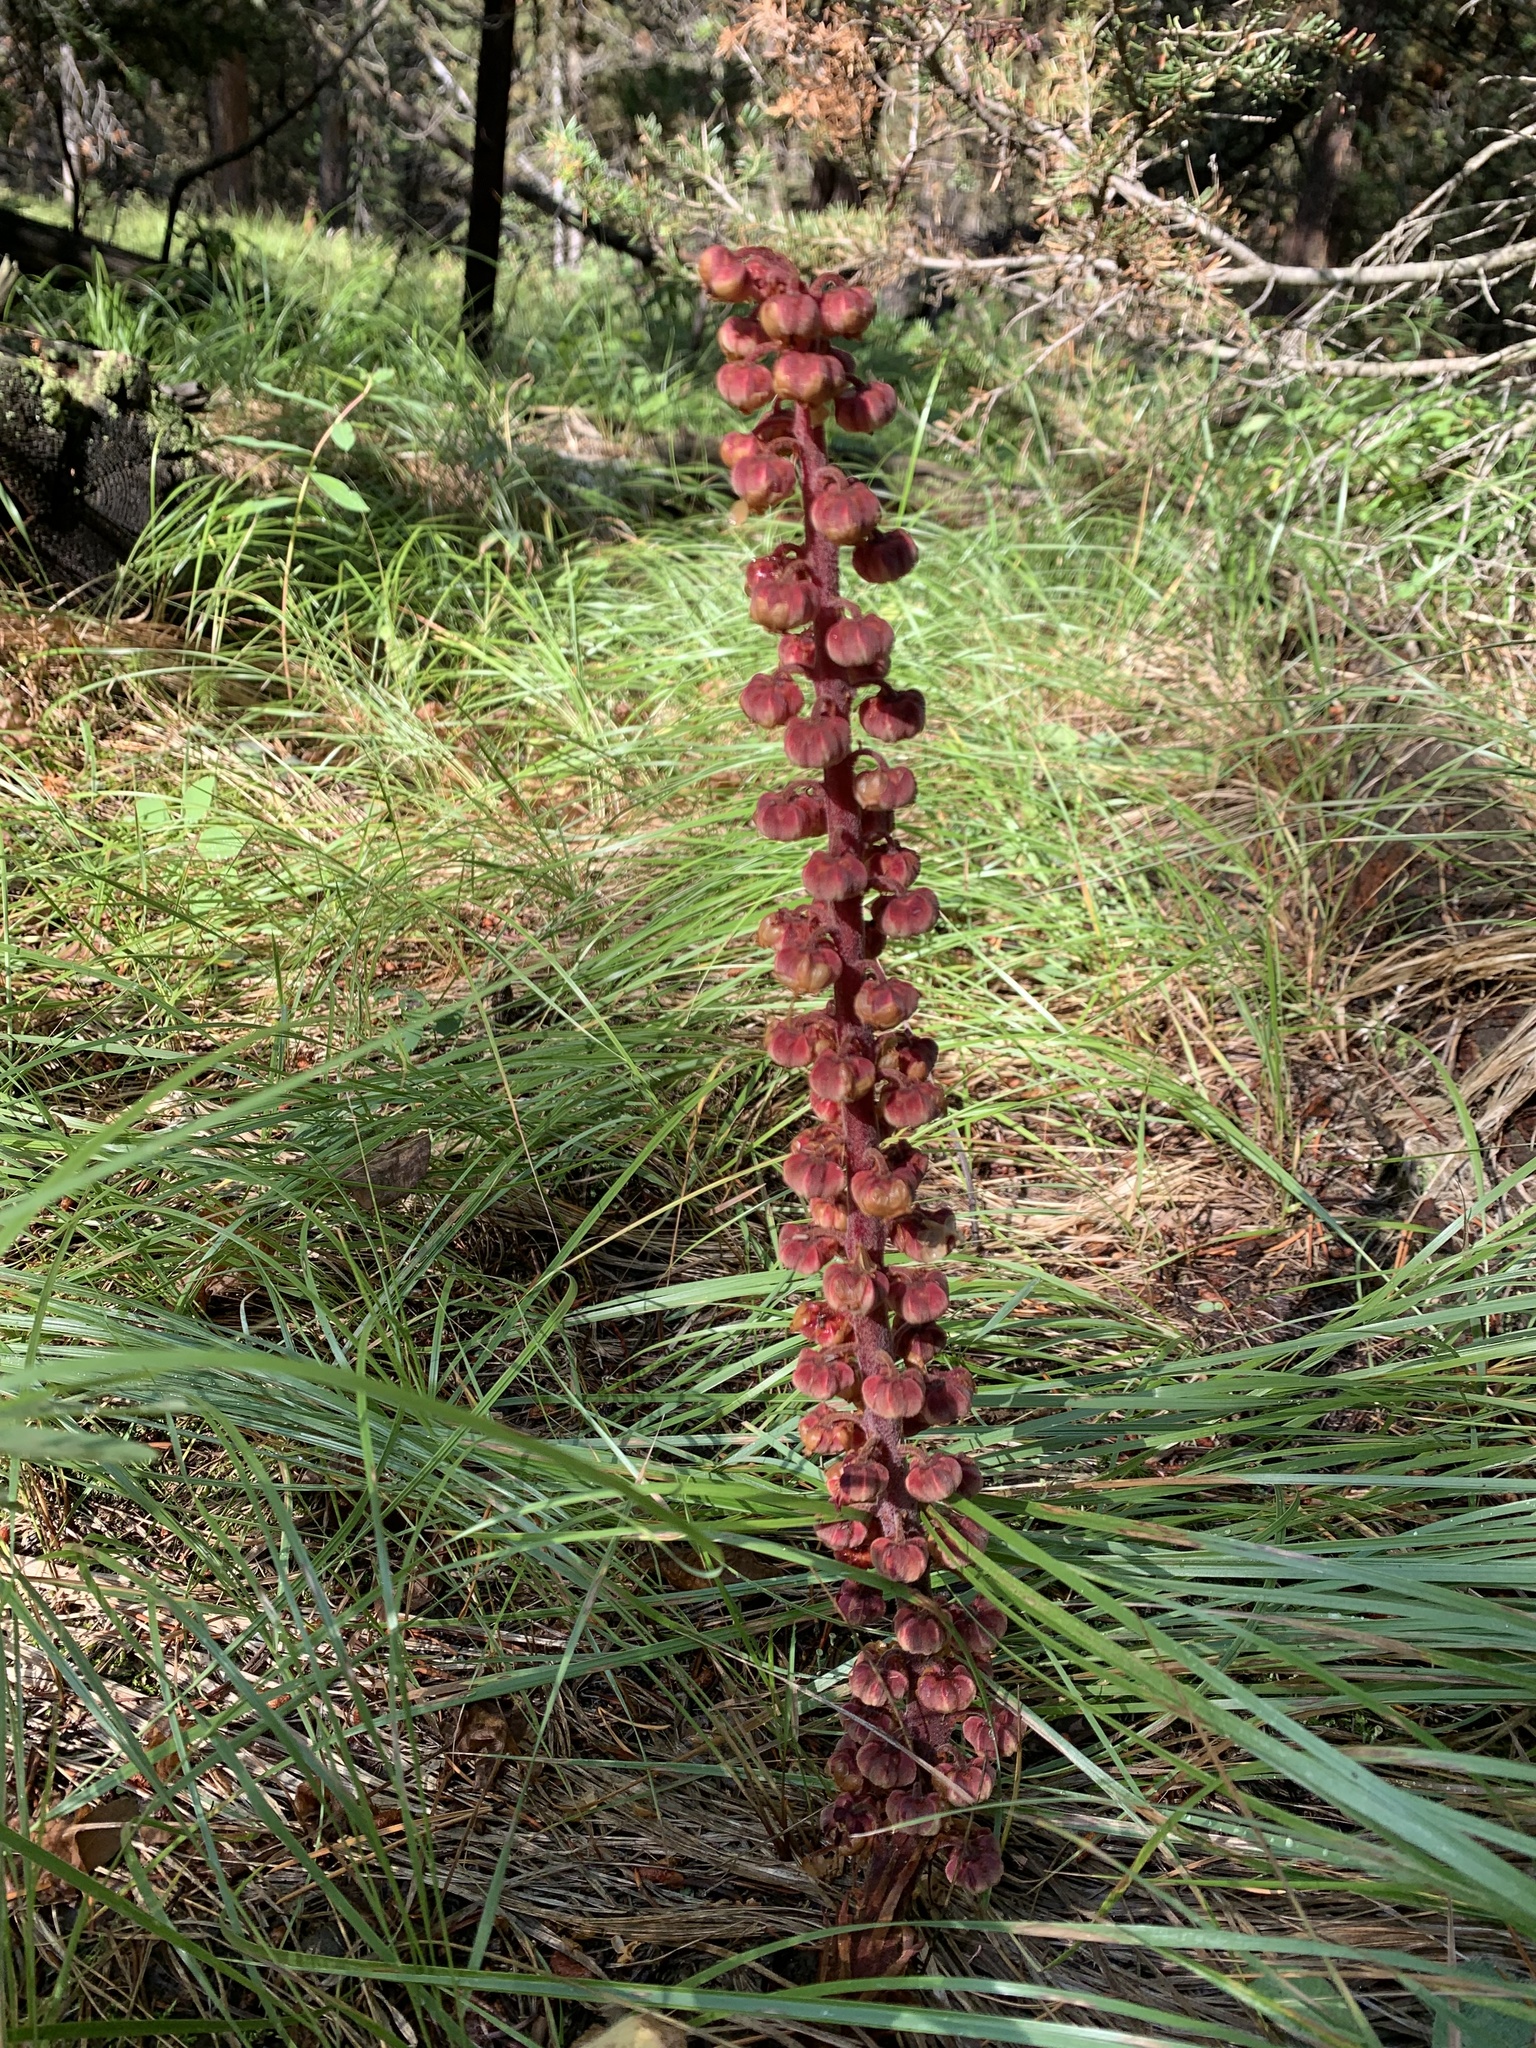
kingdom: Plantae
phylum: Tracheophyta
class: Magnoliopsida
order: Ericales
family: Ericaceae
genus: Pterospora
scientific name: Pterospora andromedea
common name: Giant bird's-nest
